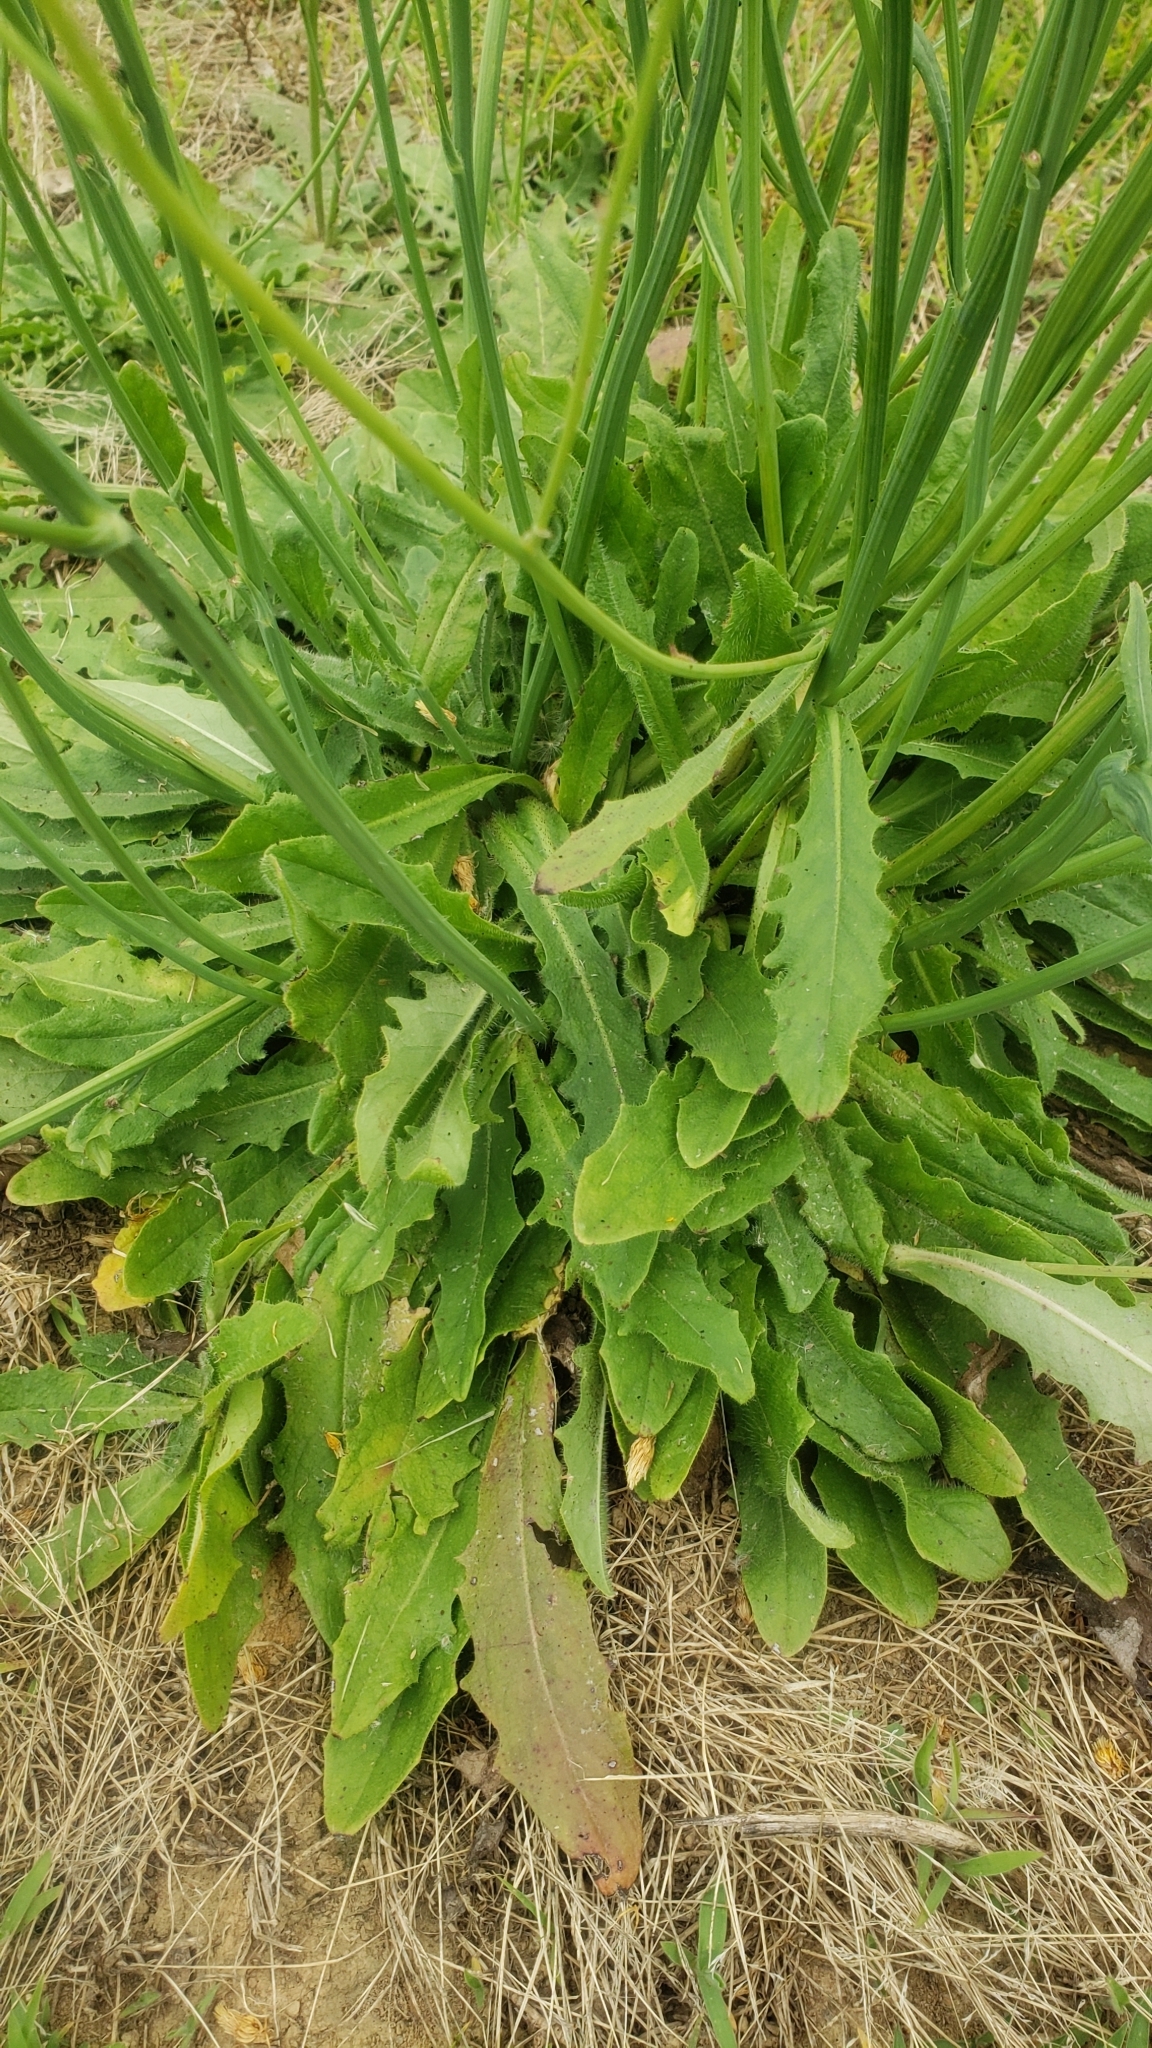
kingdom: Plantae
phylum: Tracheophyta
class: Magnoliopsida
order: Asterales
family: Asteraceae
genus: Hypochaeris
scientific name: Hypochaeris radicata
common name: Flatweed
